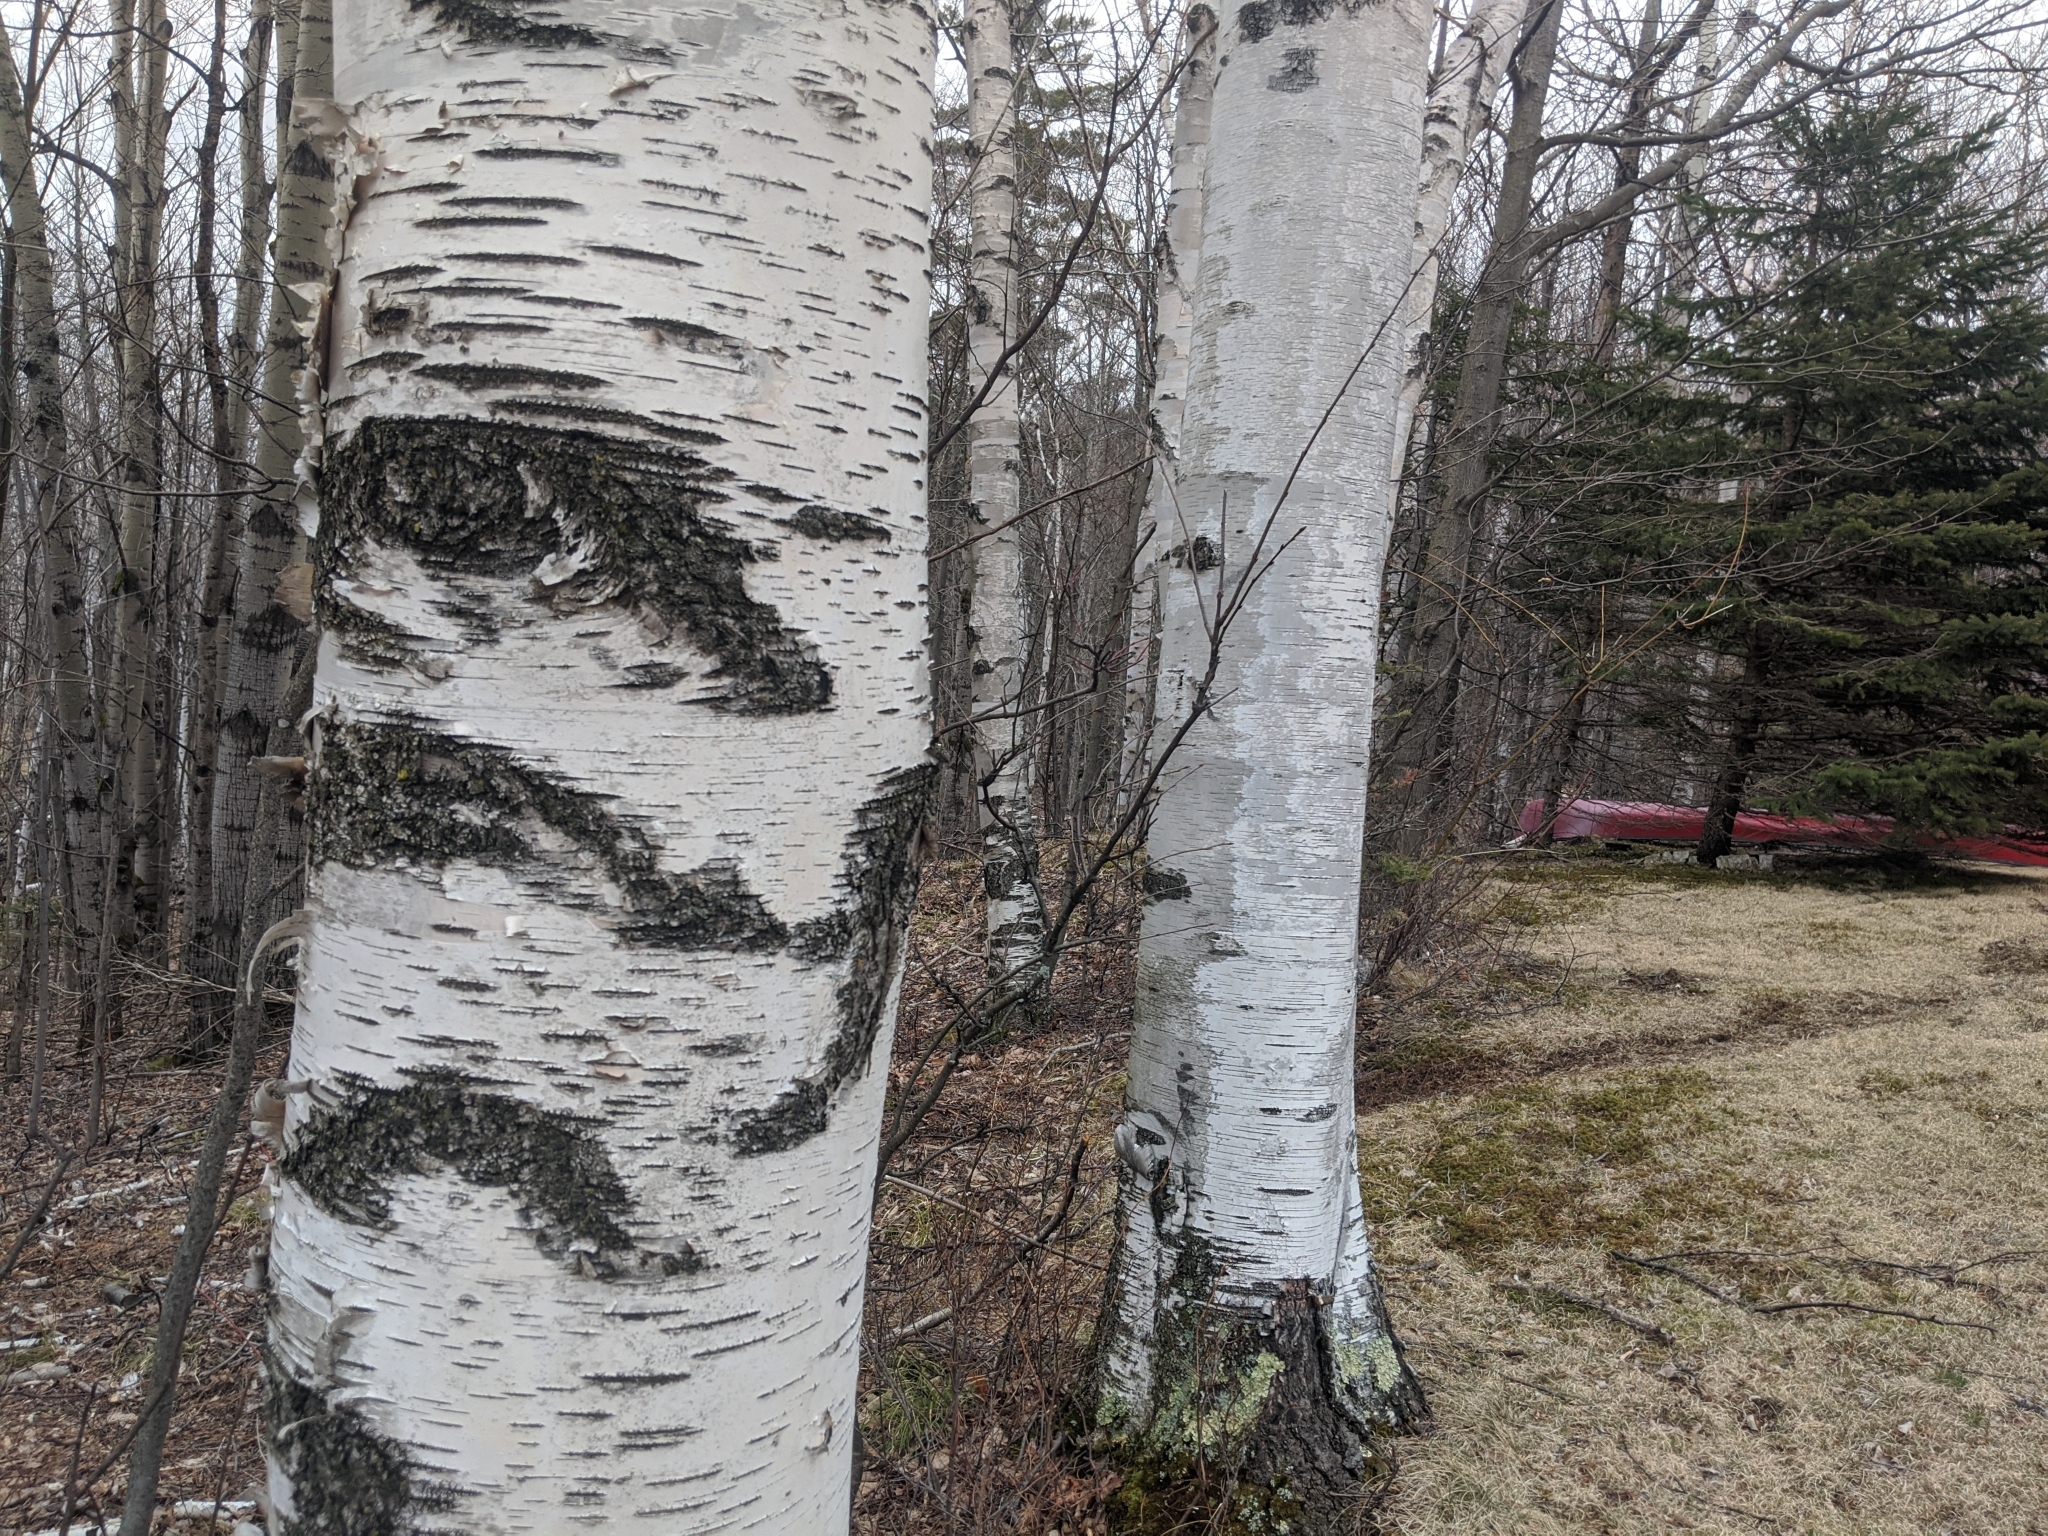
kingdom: Plantae
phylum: Tracheophyta
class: Magnoliopsida
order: Fagales
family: Betulaceae
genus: Betula
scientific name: Betula papyrifera
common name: Paper birch
